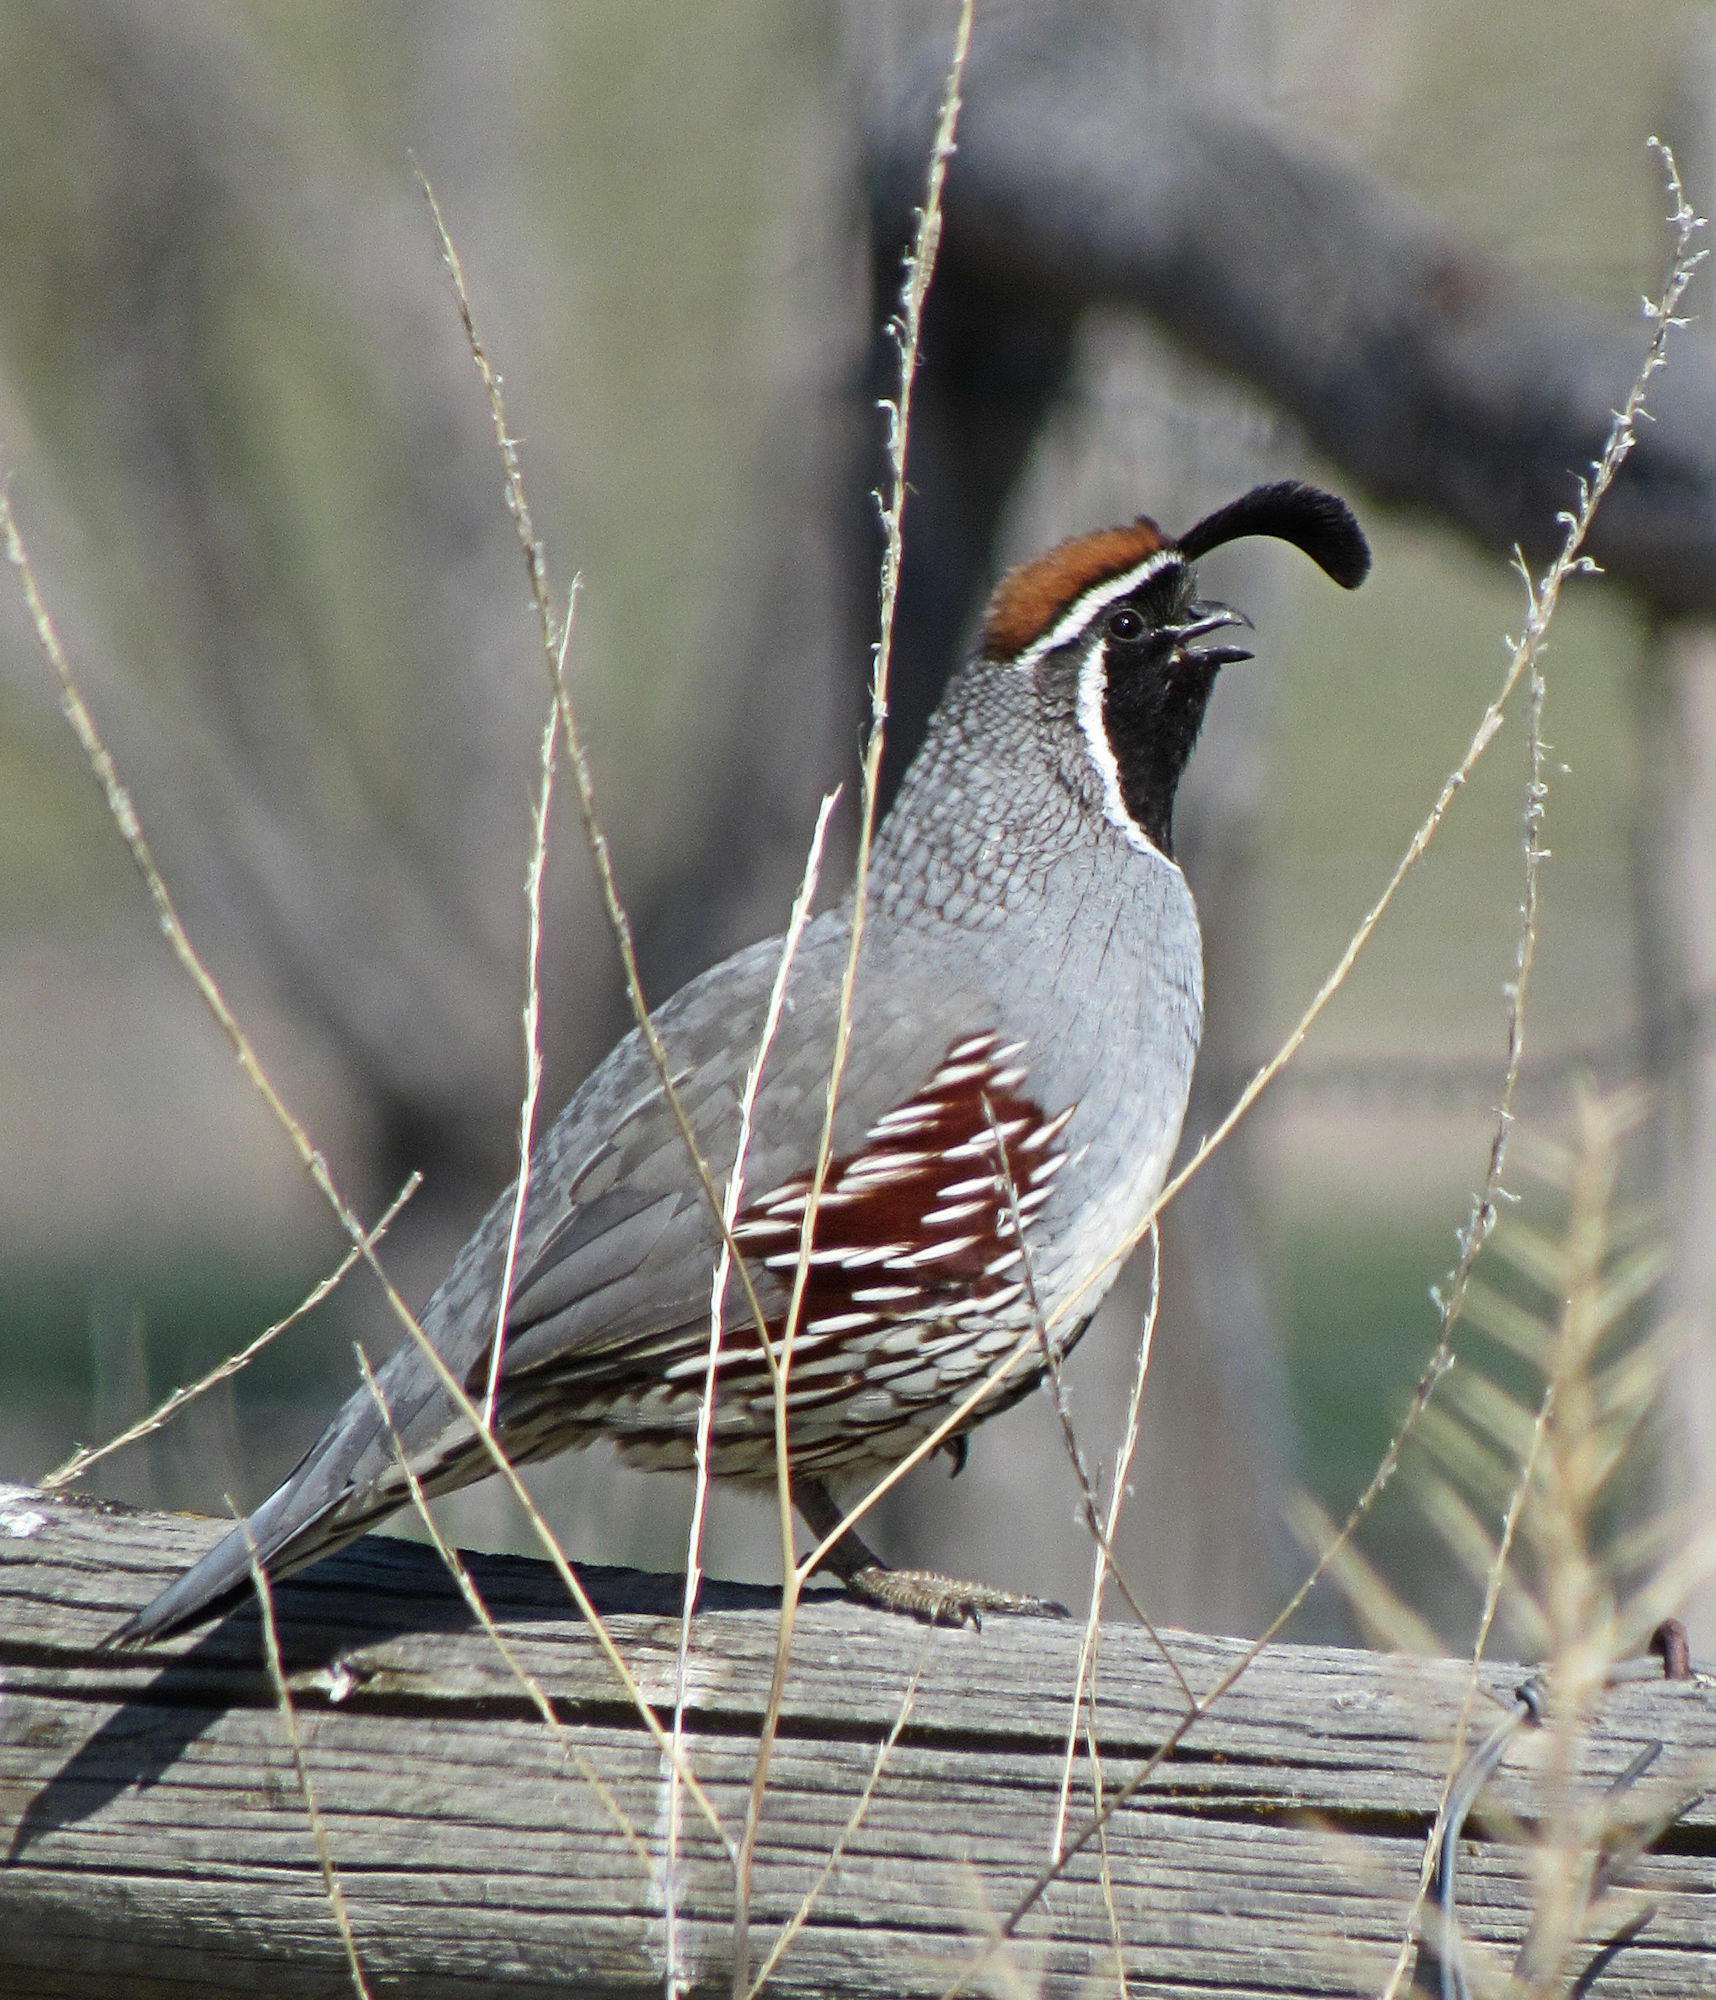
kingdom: Animalia
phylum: Chordata
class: Aves
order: Galliformes
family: Odontophoridae
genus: Callipepla
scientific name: Callipepla gambelii
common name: Gambel's quail
